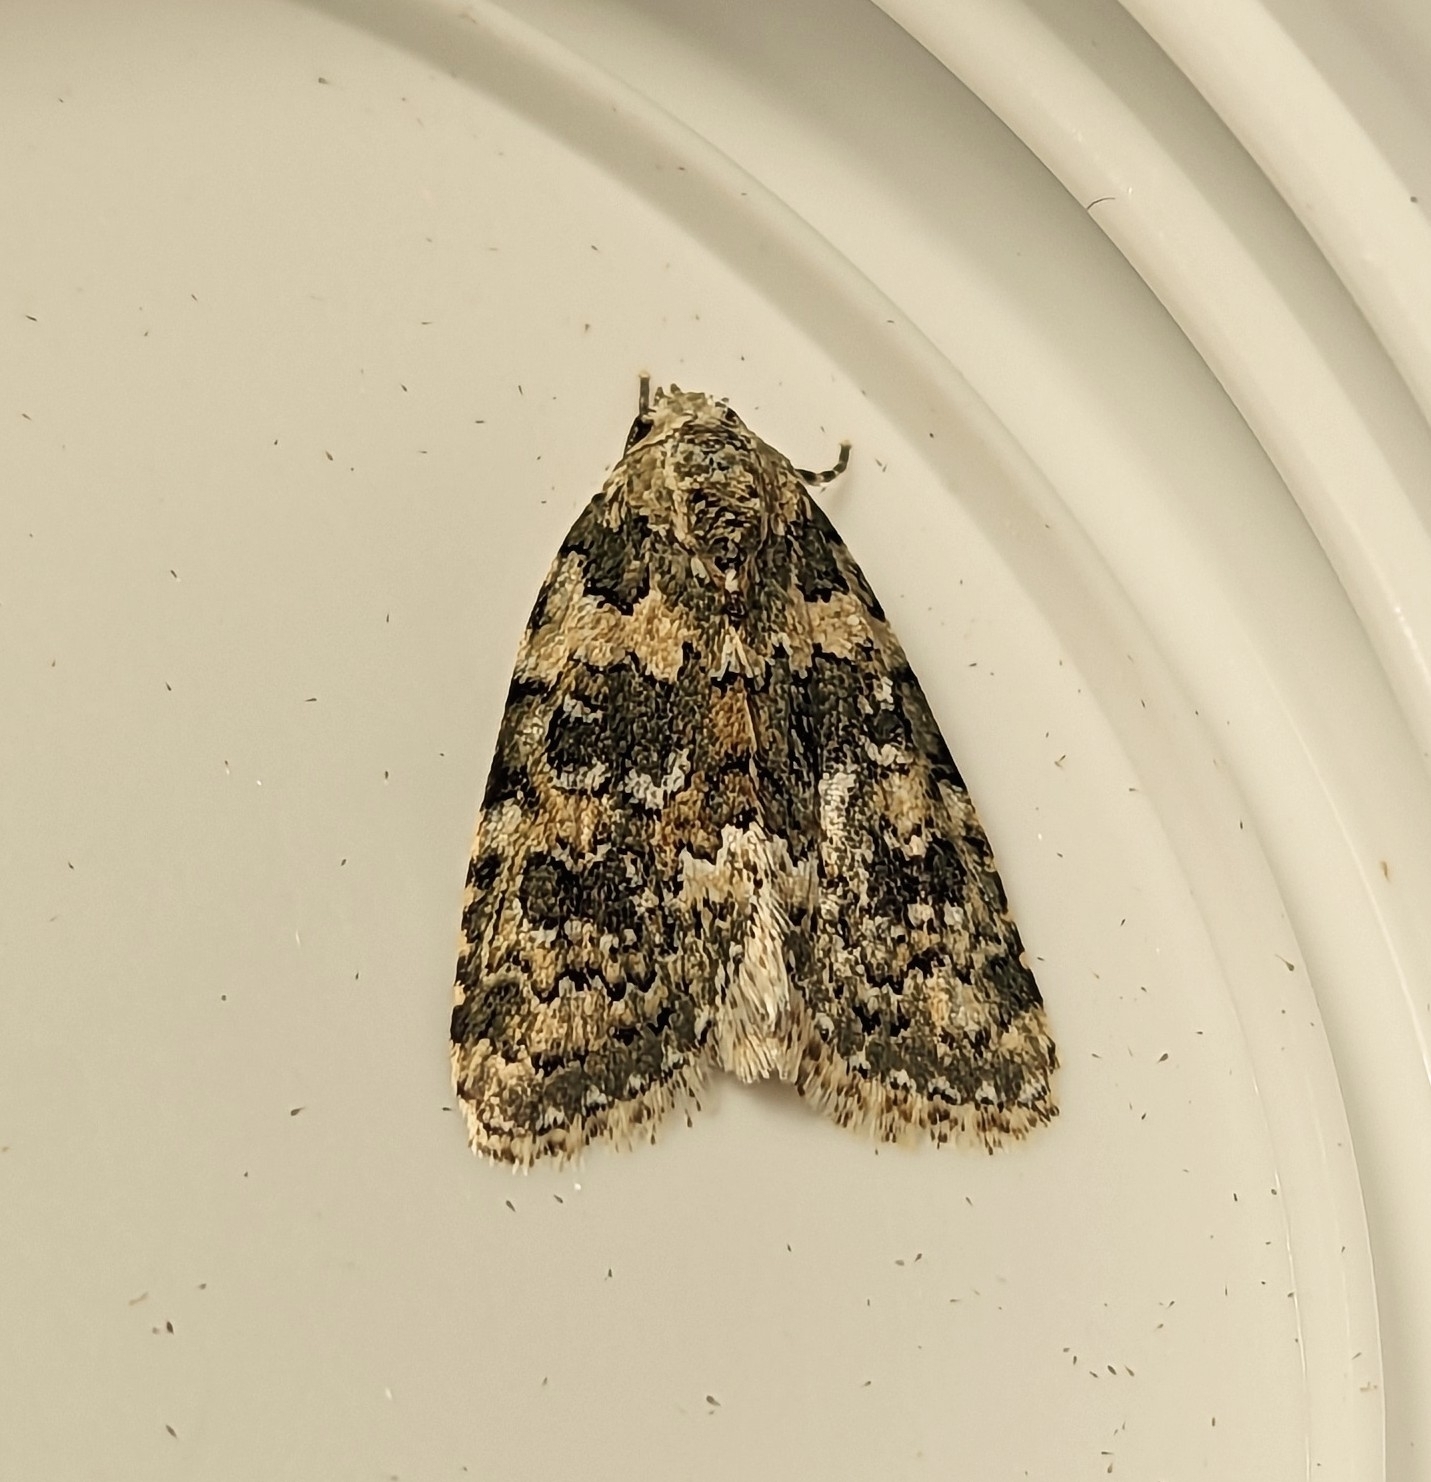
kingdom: Animalia
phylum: Arthropoda
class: Insecta
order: Lepidoptera
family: Noctuidae
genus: Bryophila
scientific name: Bryophila domestica
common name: Marbled beauty
